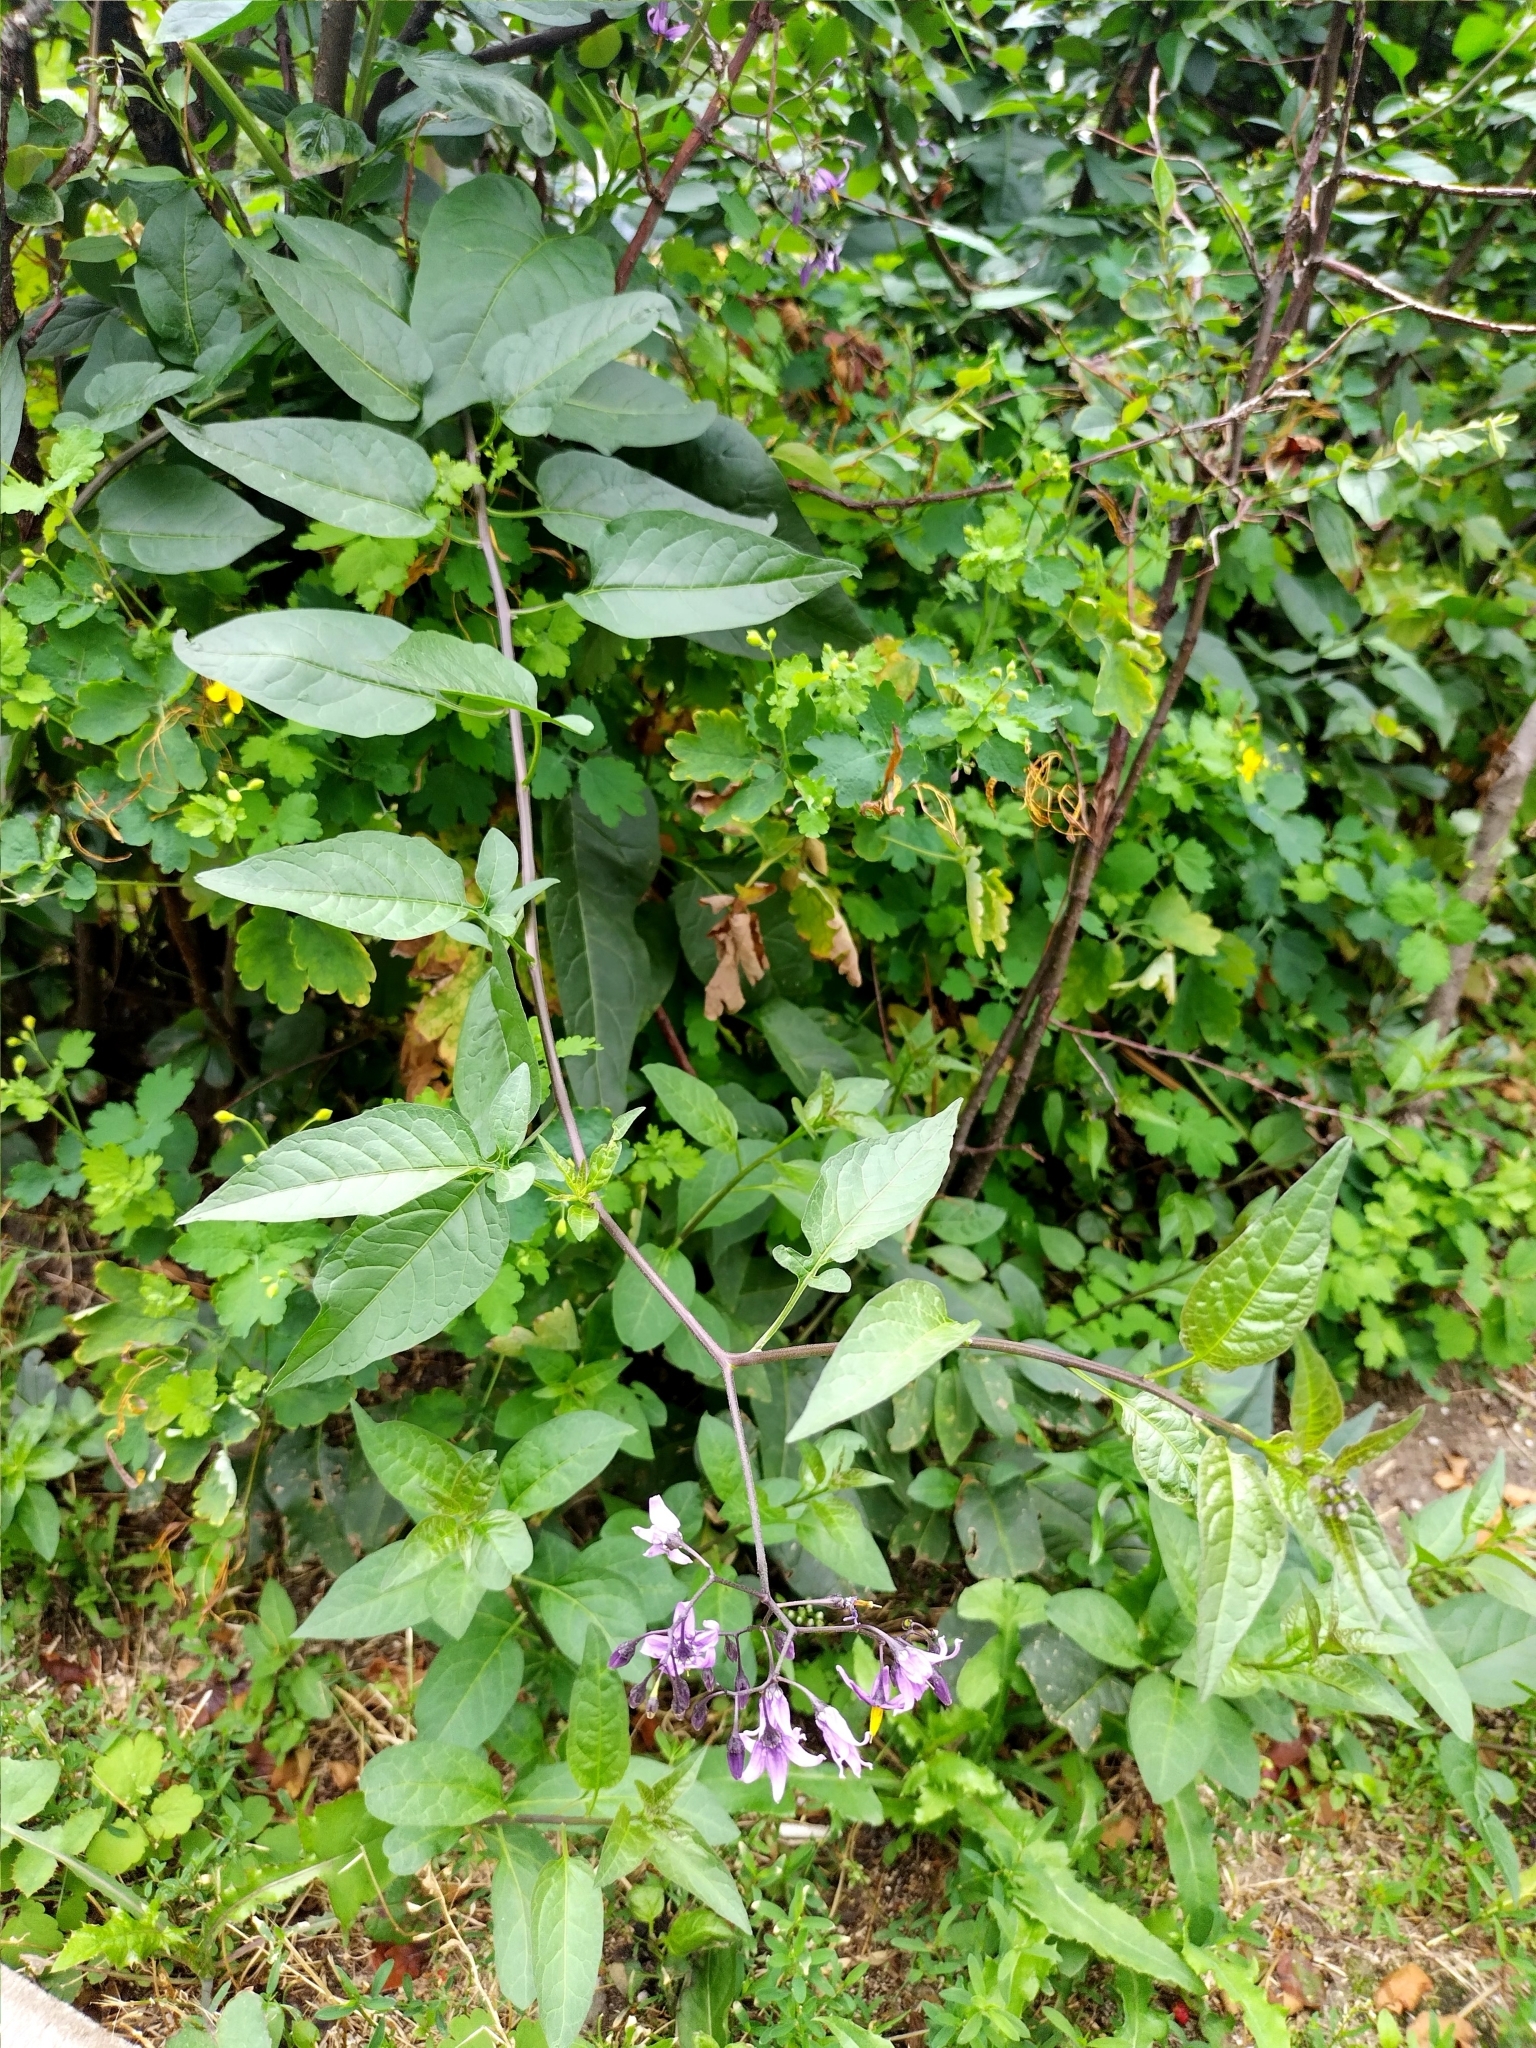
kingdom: Plantae
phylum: Tracheophyta
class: Magnoliopsida
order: Solanales
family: Solanaceae
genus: Solanum
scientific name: Solanum dulcamara
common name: Climbing nightshade
